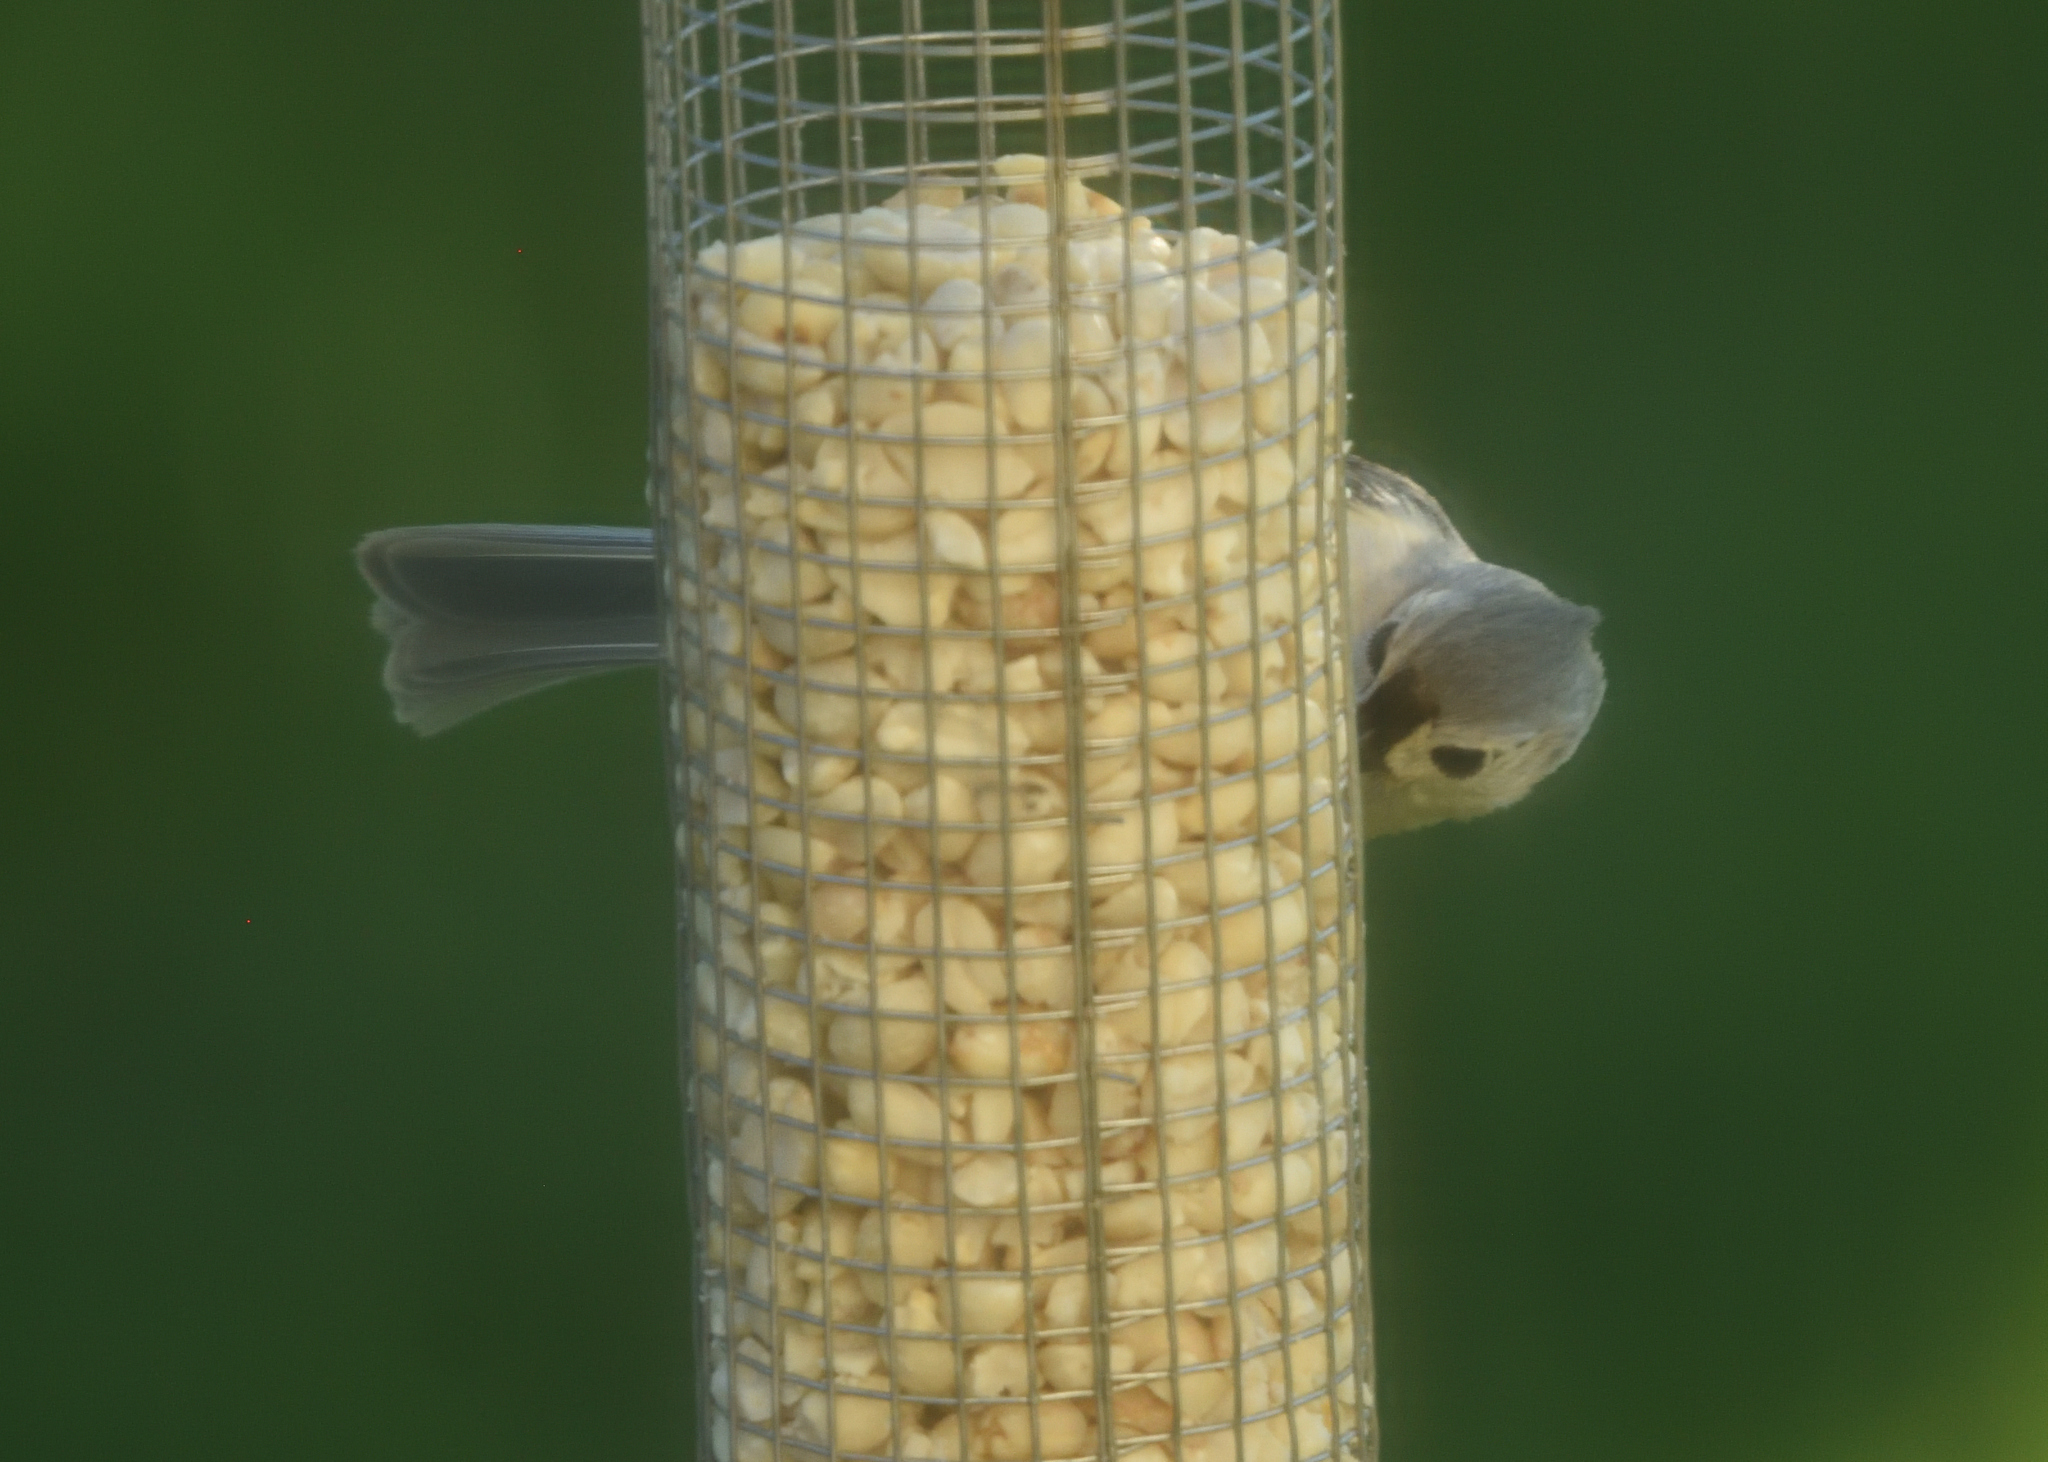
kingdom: Animalia
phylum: Chordata
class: Aves
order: Passeriformes
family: Paridae
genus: Baeolophus
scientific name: Baeolophus bicolor
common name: Tufted titmouse
